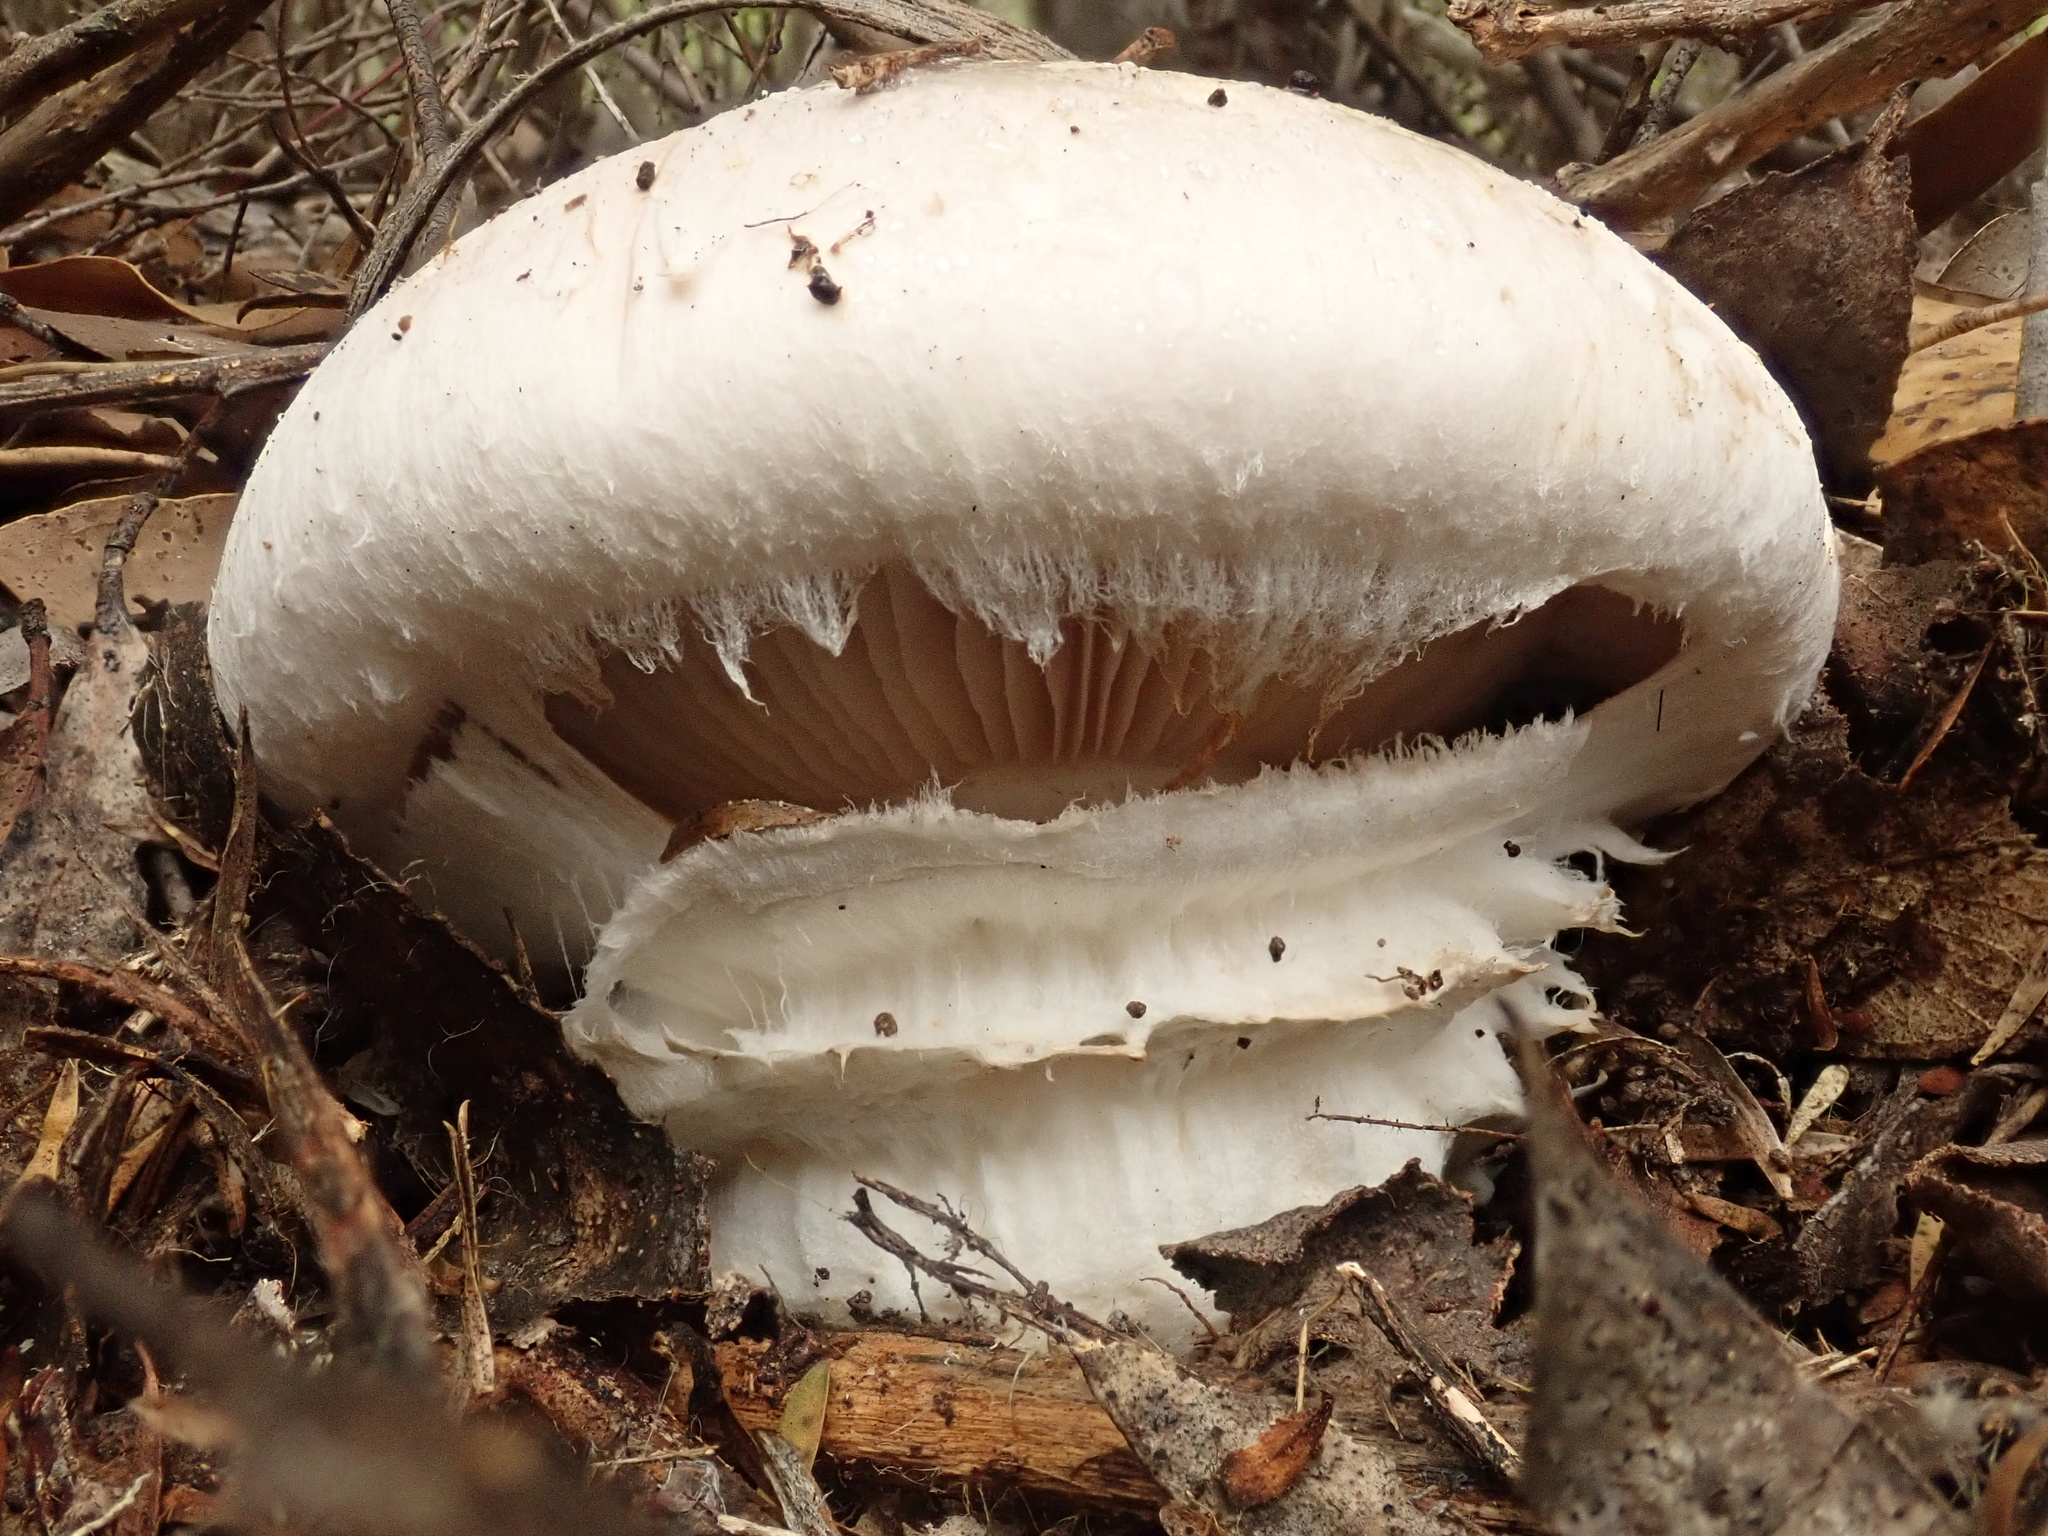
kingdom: Fungi
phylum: Basidiomycota
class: Agaricomycetes
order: Agaricales
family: Cortinariaceae
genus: Austrocortinarius
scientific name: Austrocortinarius australiensis
